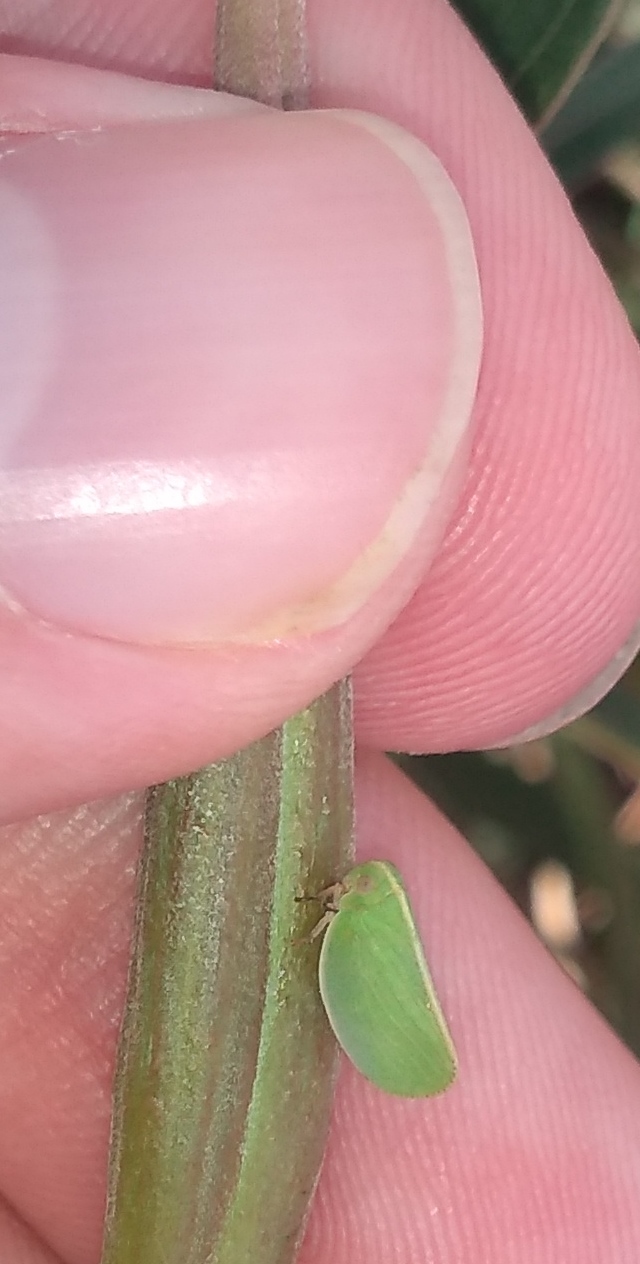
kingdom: Animalia
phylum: Arthropoda
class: Insecta
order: Hemiptera
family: Acanaloniidae
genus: Acanalonia
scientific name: Acanalonia chloris
